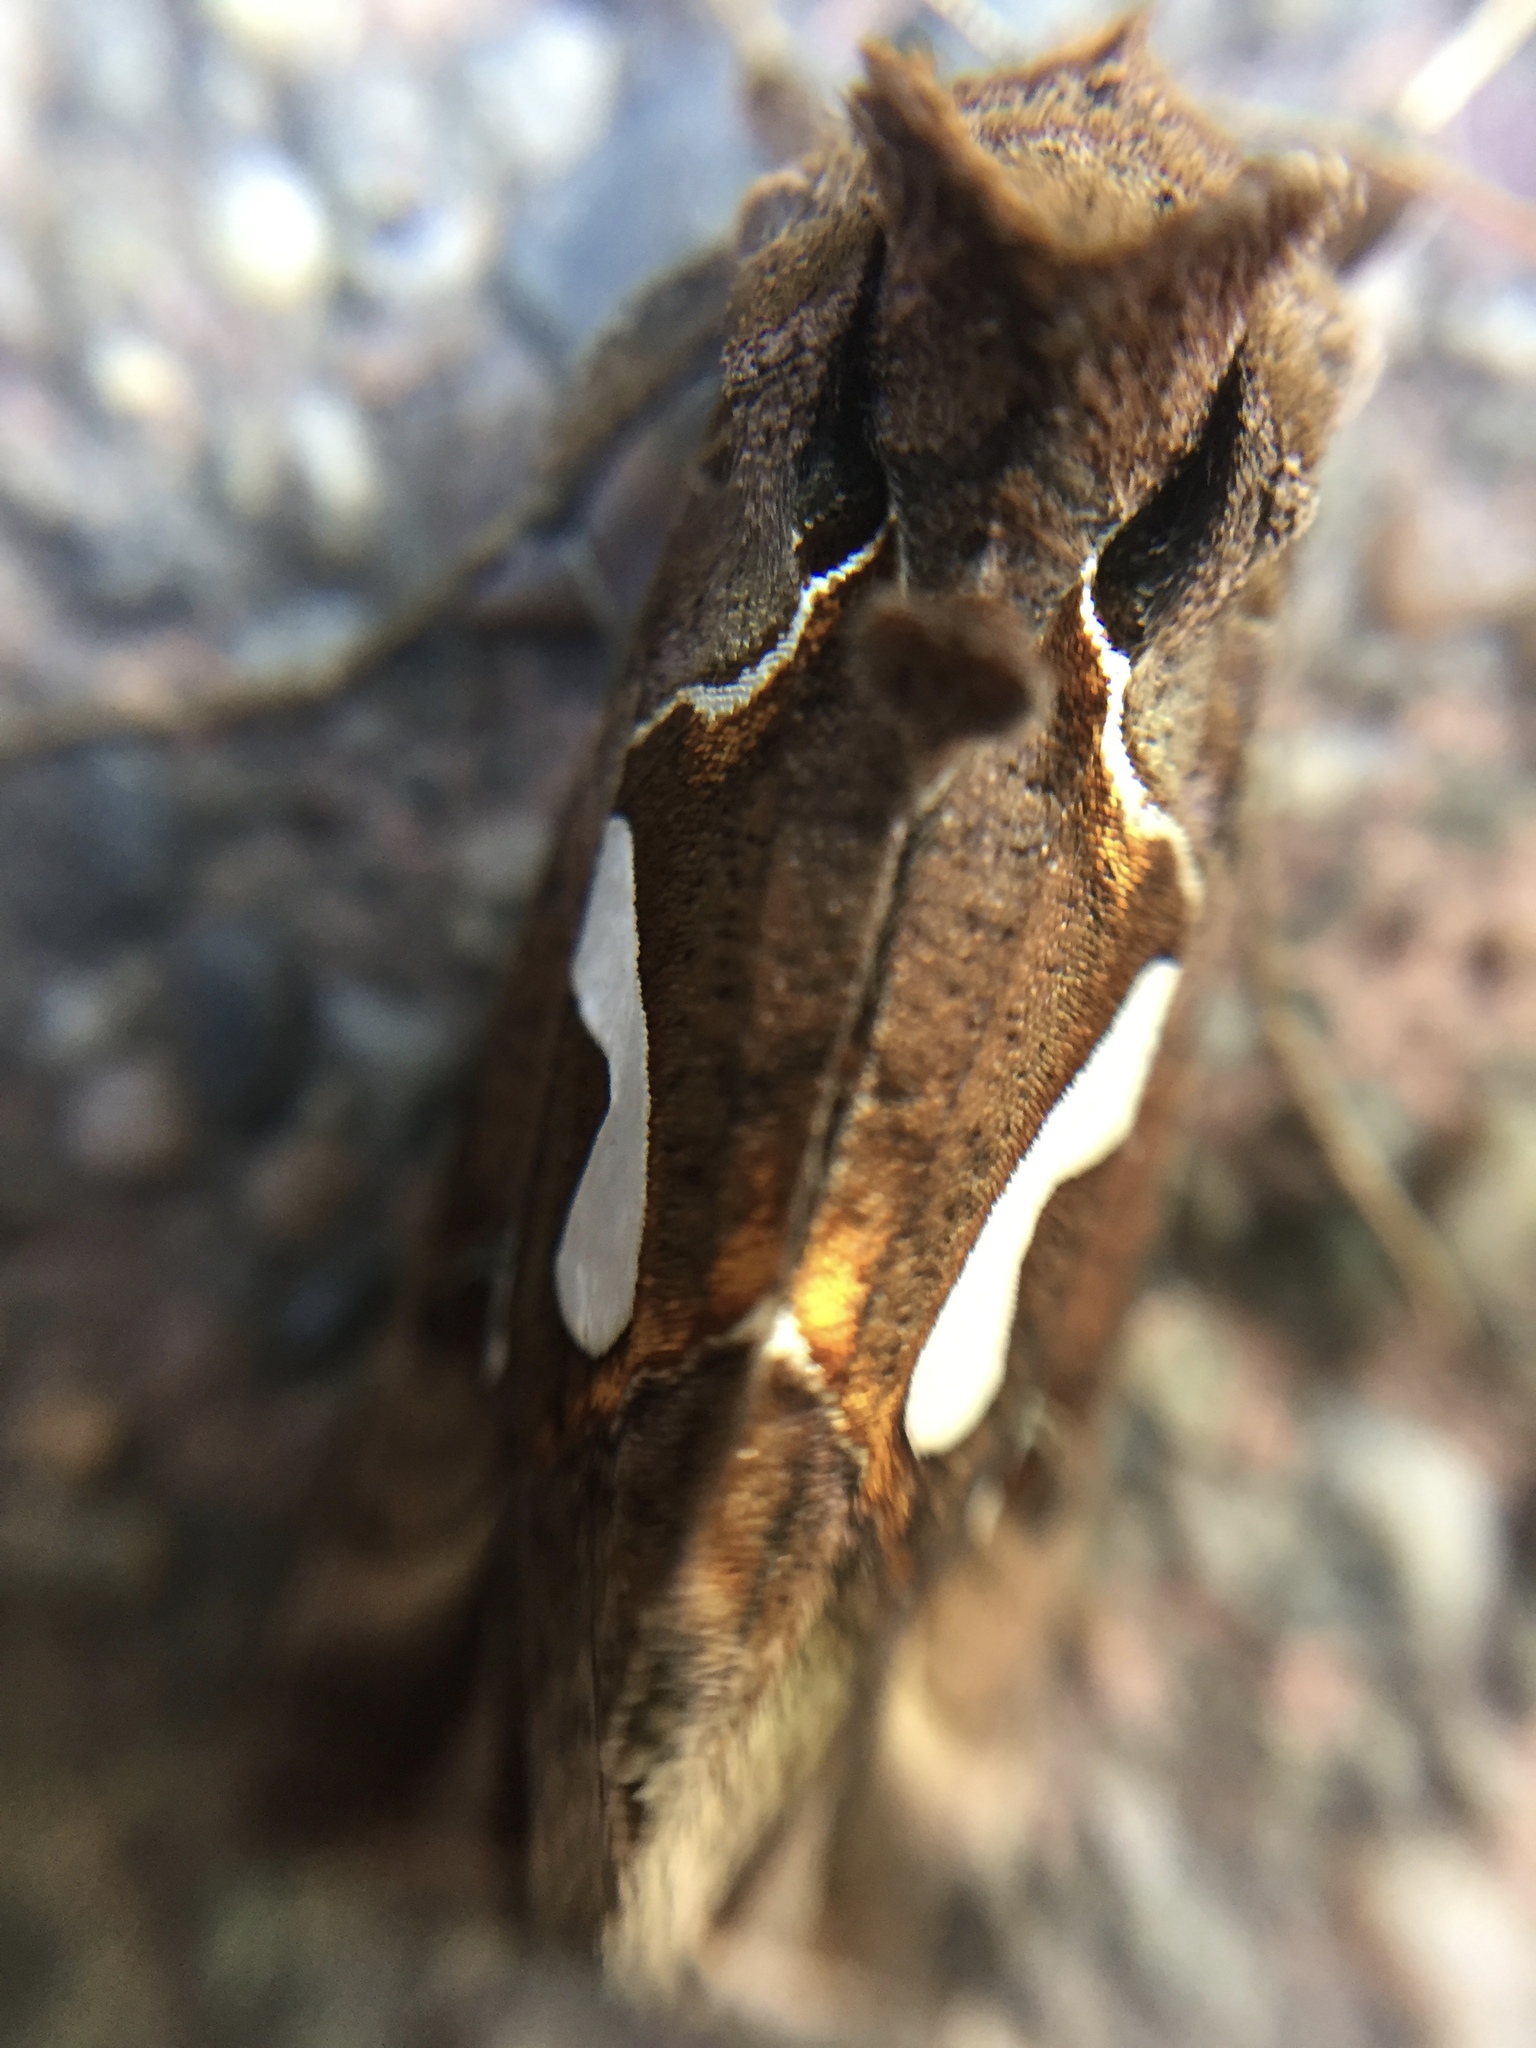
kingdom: Animalia
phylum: Arthropoda
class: Insecta
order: Lepidoptera
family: Noctuidae
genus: Megalographa
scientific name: Megalographa biloba
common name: Cutworm
